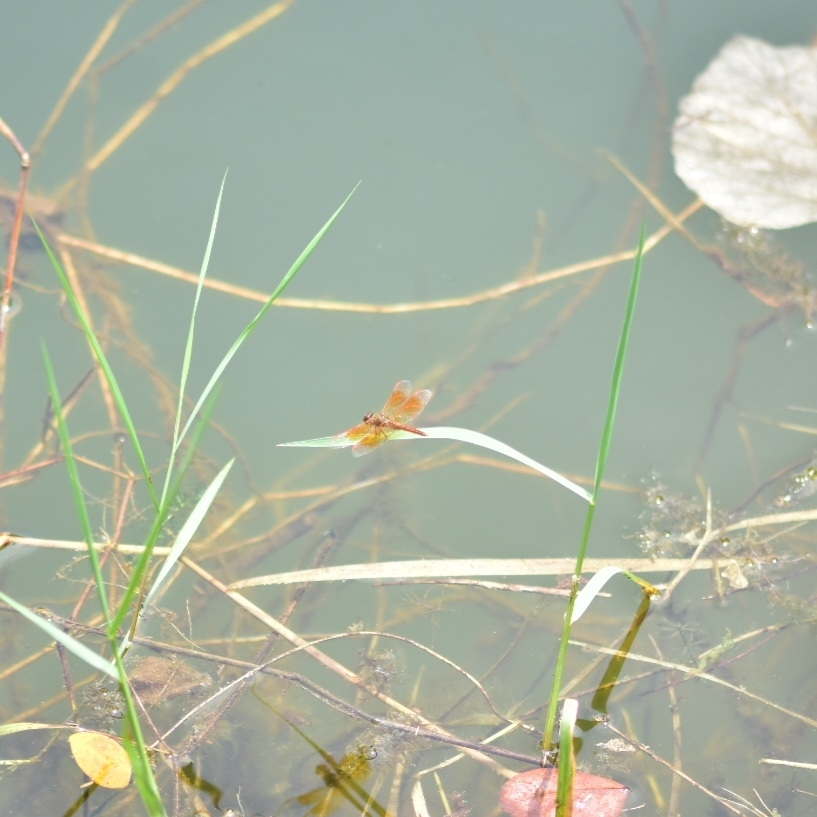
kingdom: Animalia
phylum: Arthropoda
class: Insecta
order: Odonata
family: Libellulidae
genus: Brachythemis
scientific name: Brachythemis contaminata
